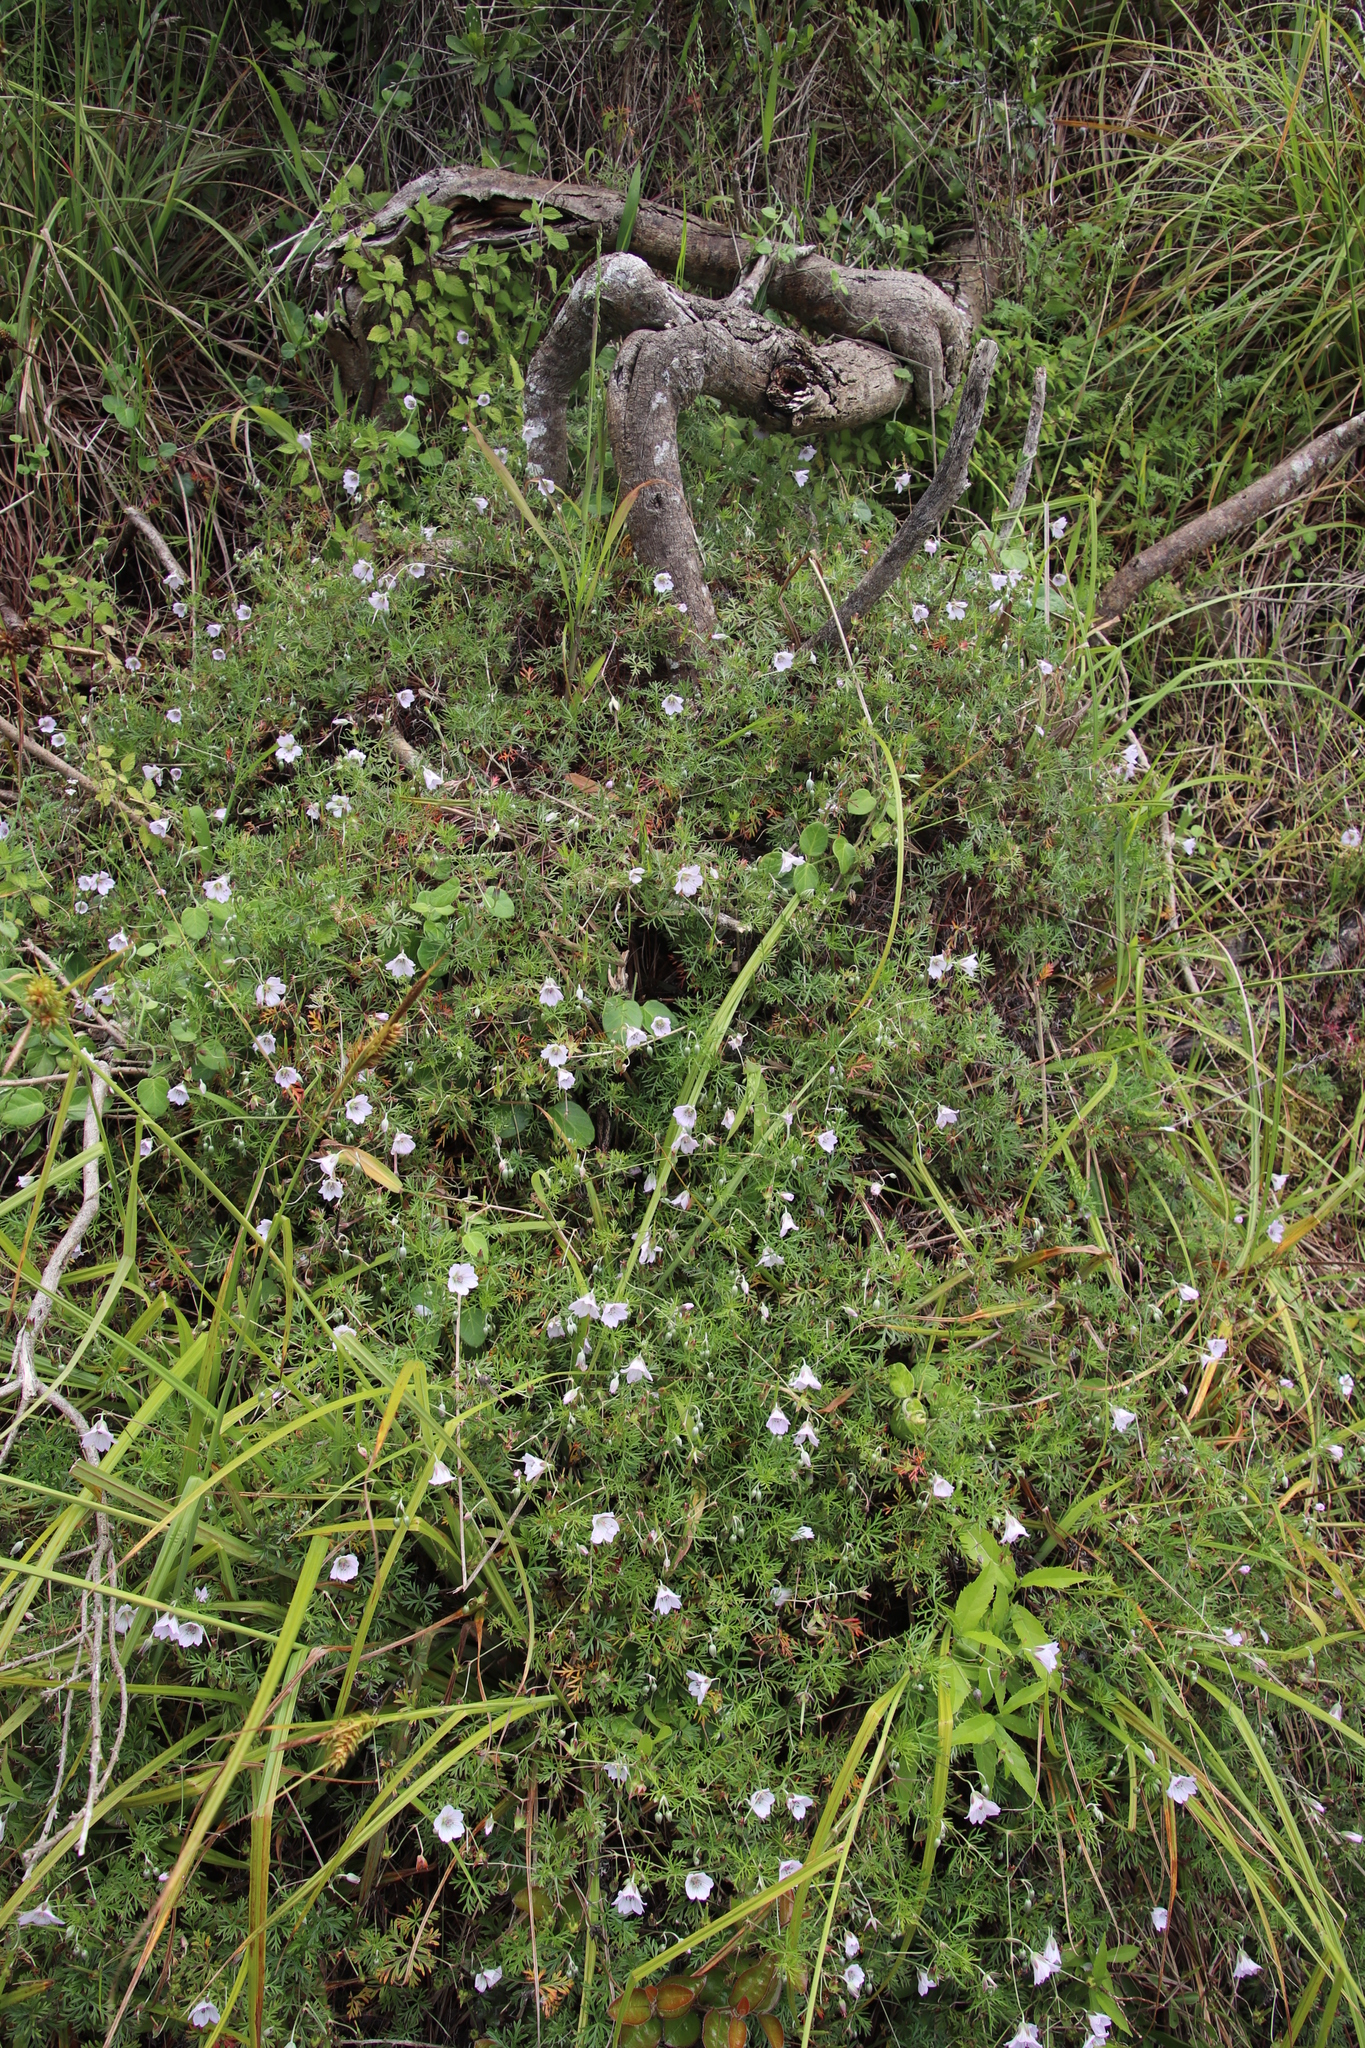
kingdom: Plantae
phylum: Tracheophyta
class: Magnoliopsida
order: Geraniales
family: Geraniaceae
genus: Geranium
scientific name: Geranium incanum
